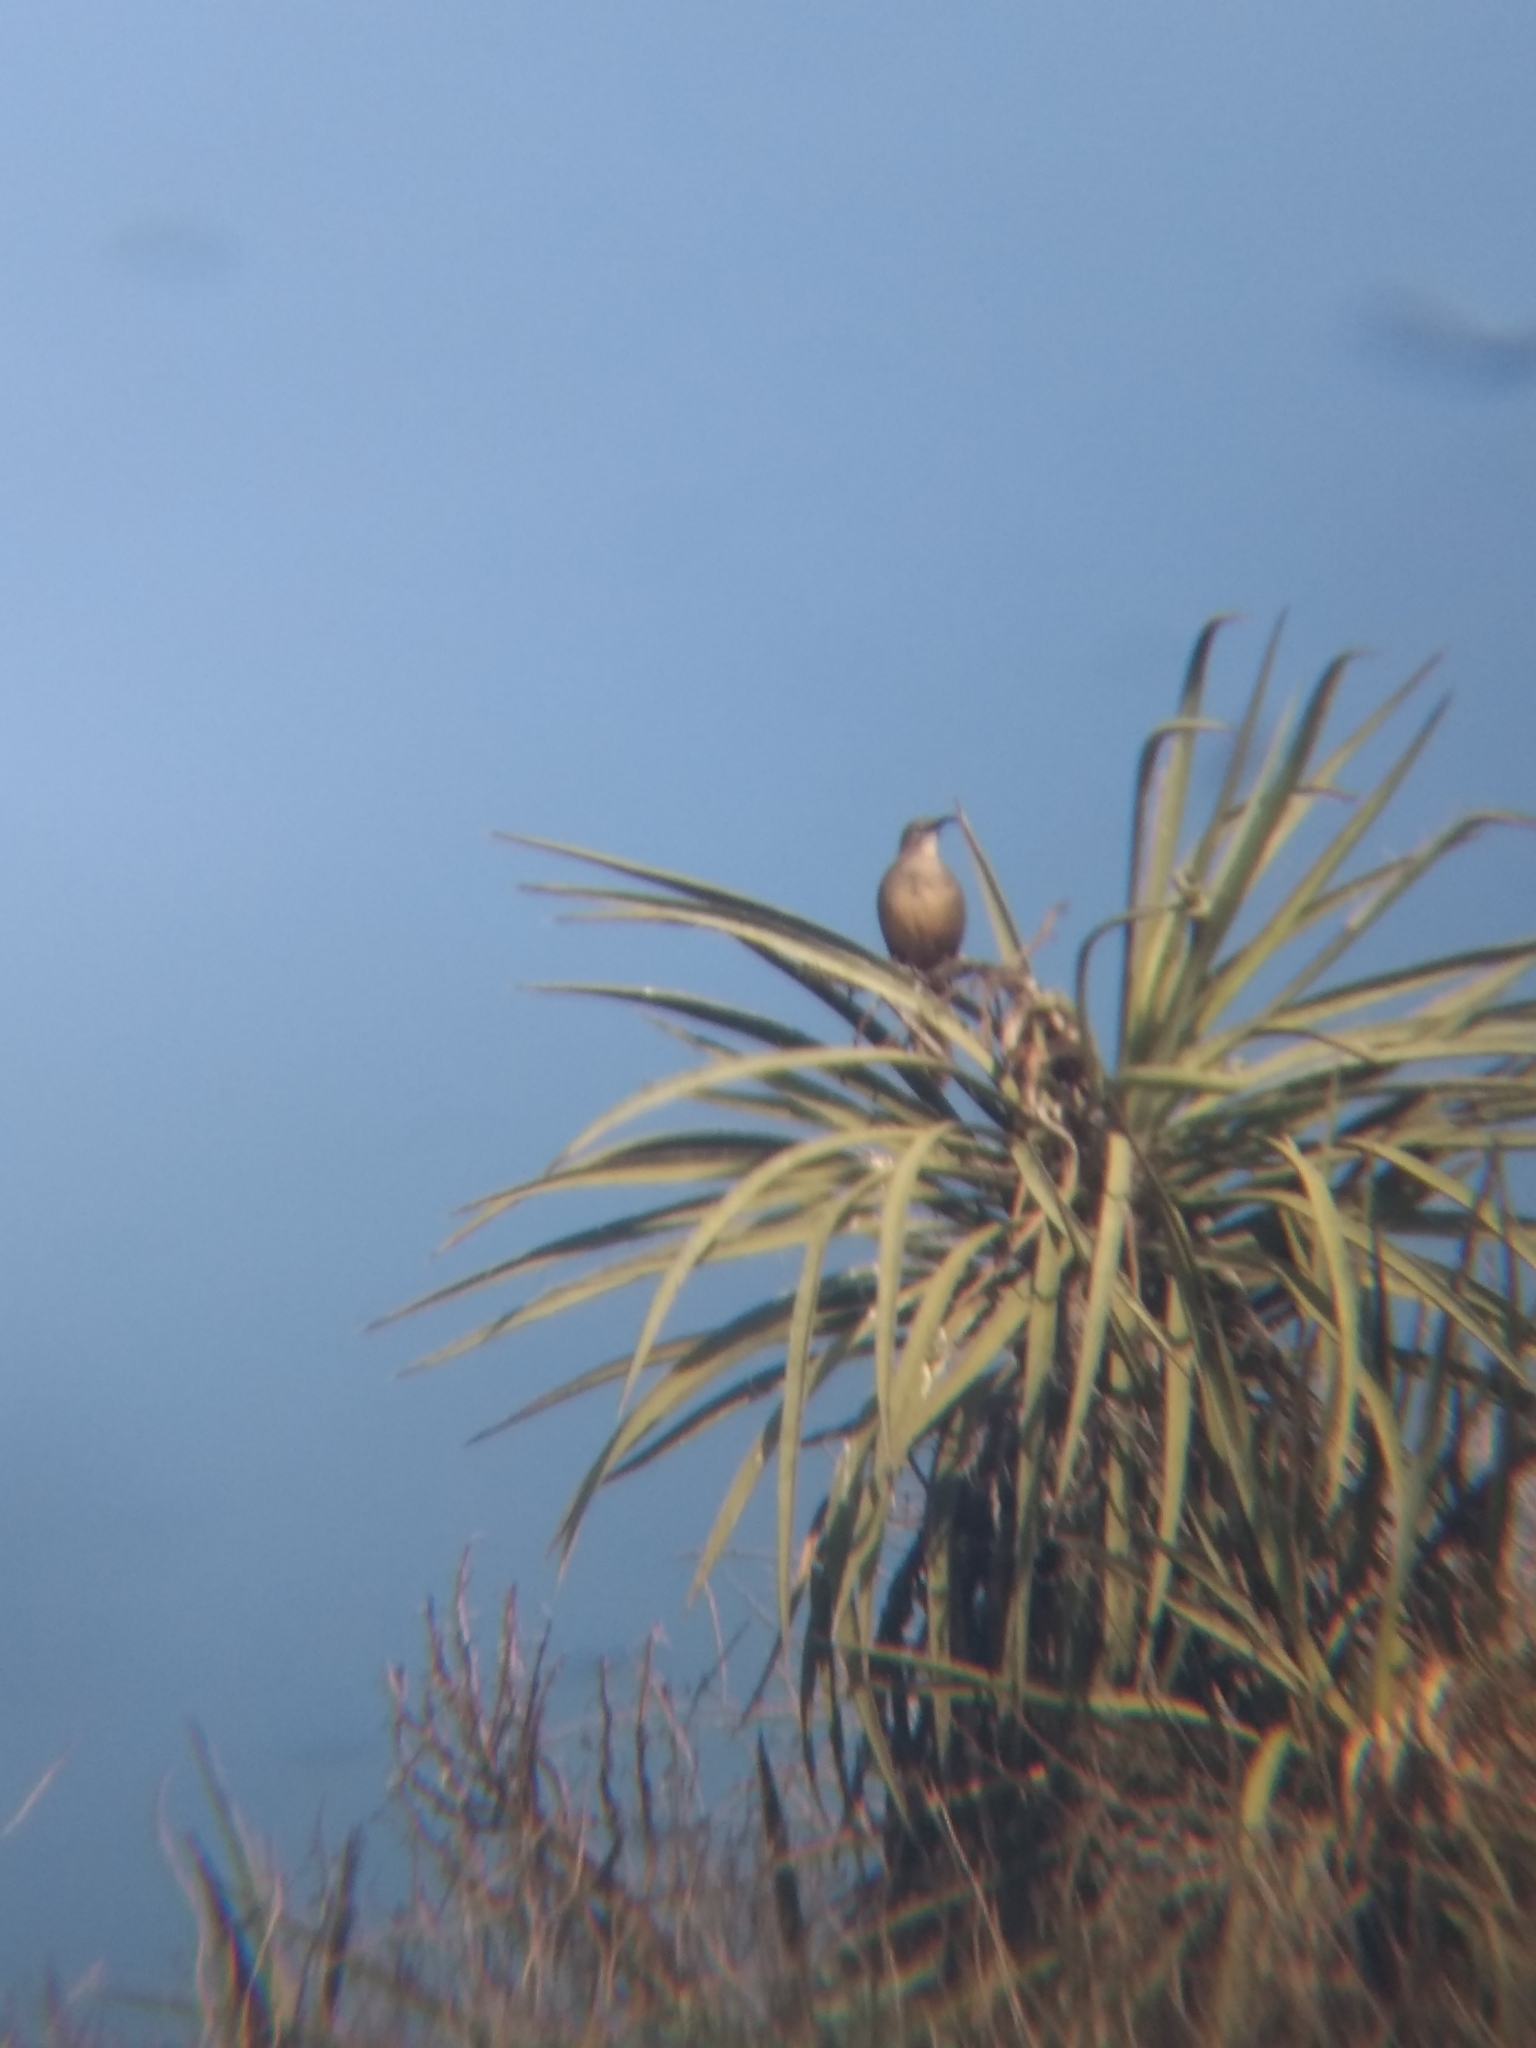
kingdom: Animalia
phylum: Chordata
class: Aves
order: Passeriformes
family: Mimidae
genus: Toxostoma
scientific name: Toxostoma redivivum
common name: California thrasher
